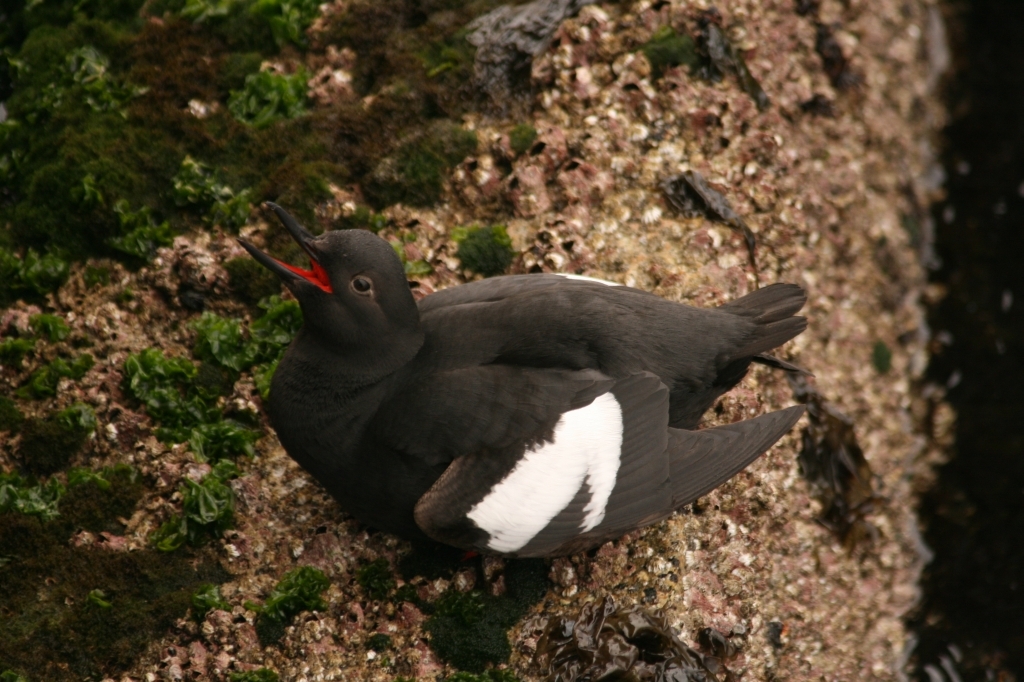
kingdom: Animalia
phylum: Chordata
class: Aves
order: Charadriiformes
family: Alcidae
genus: Cepphus
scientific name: Cepphus columba
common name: Pigeon guillemot
